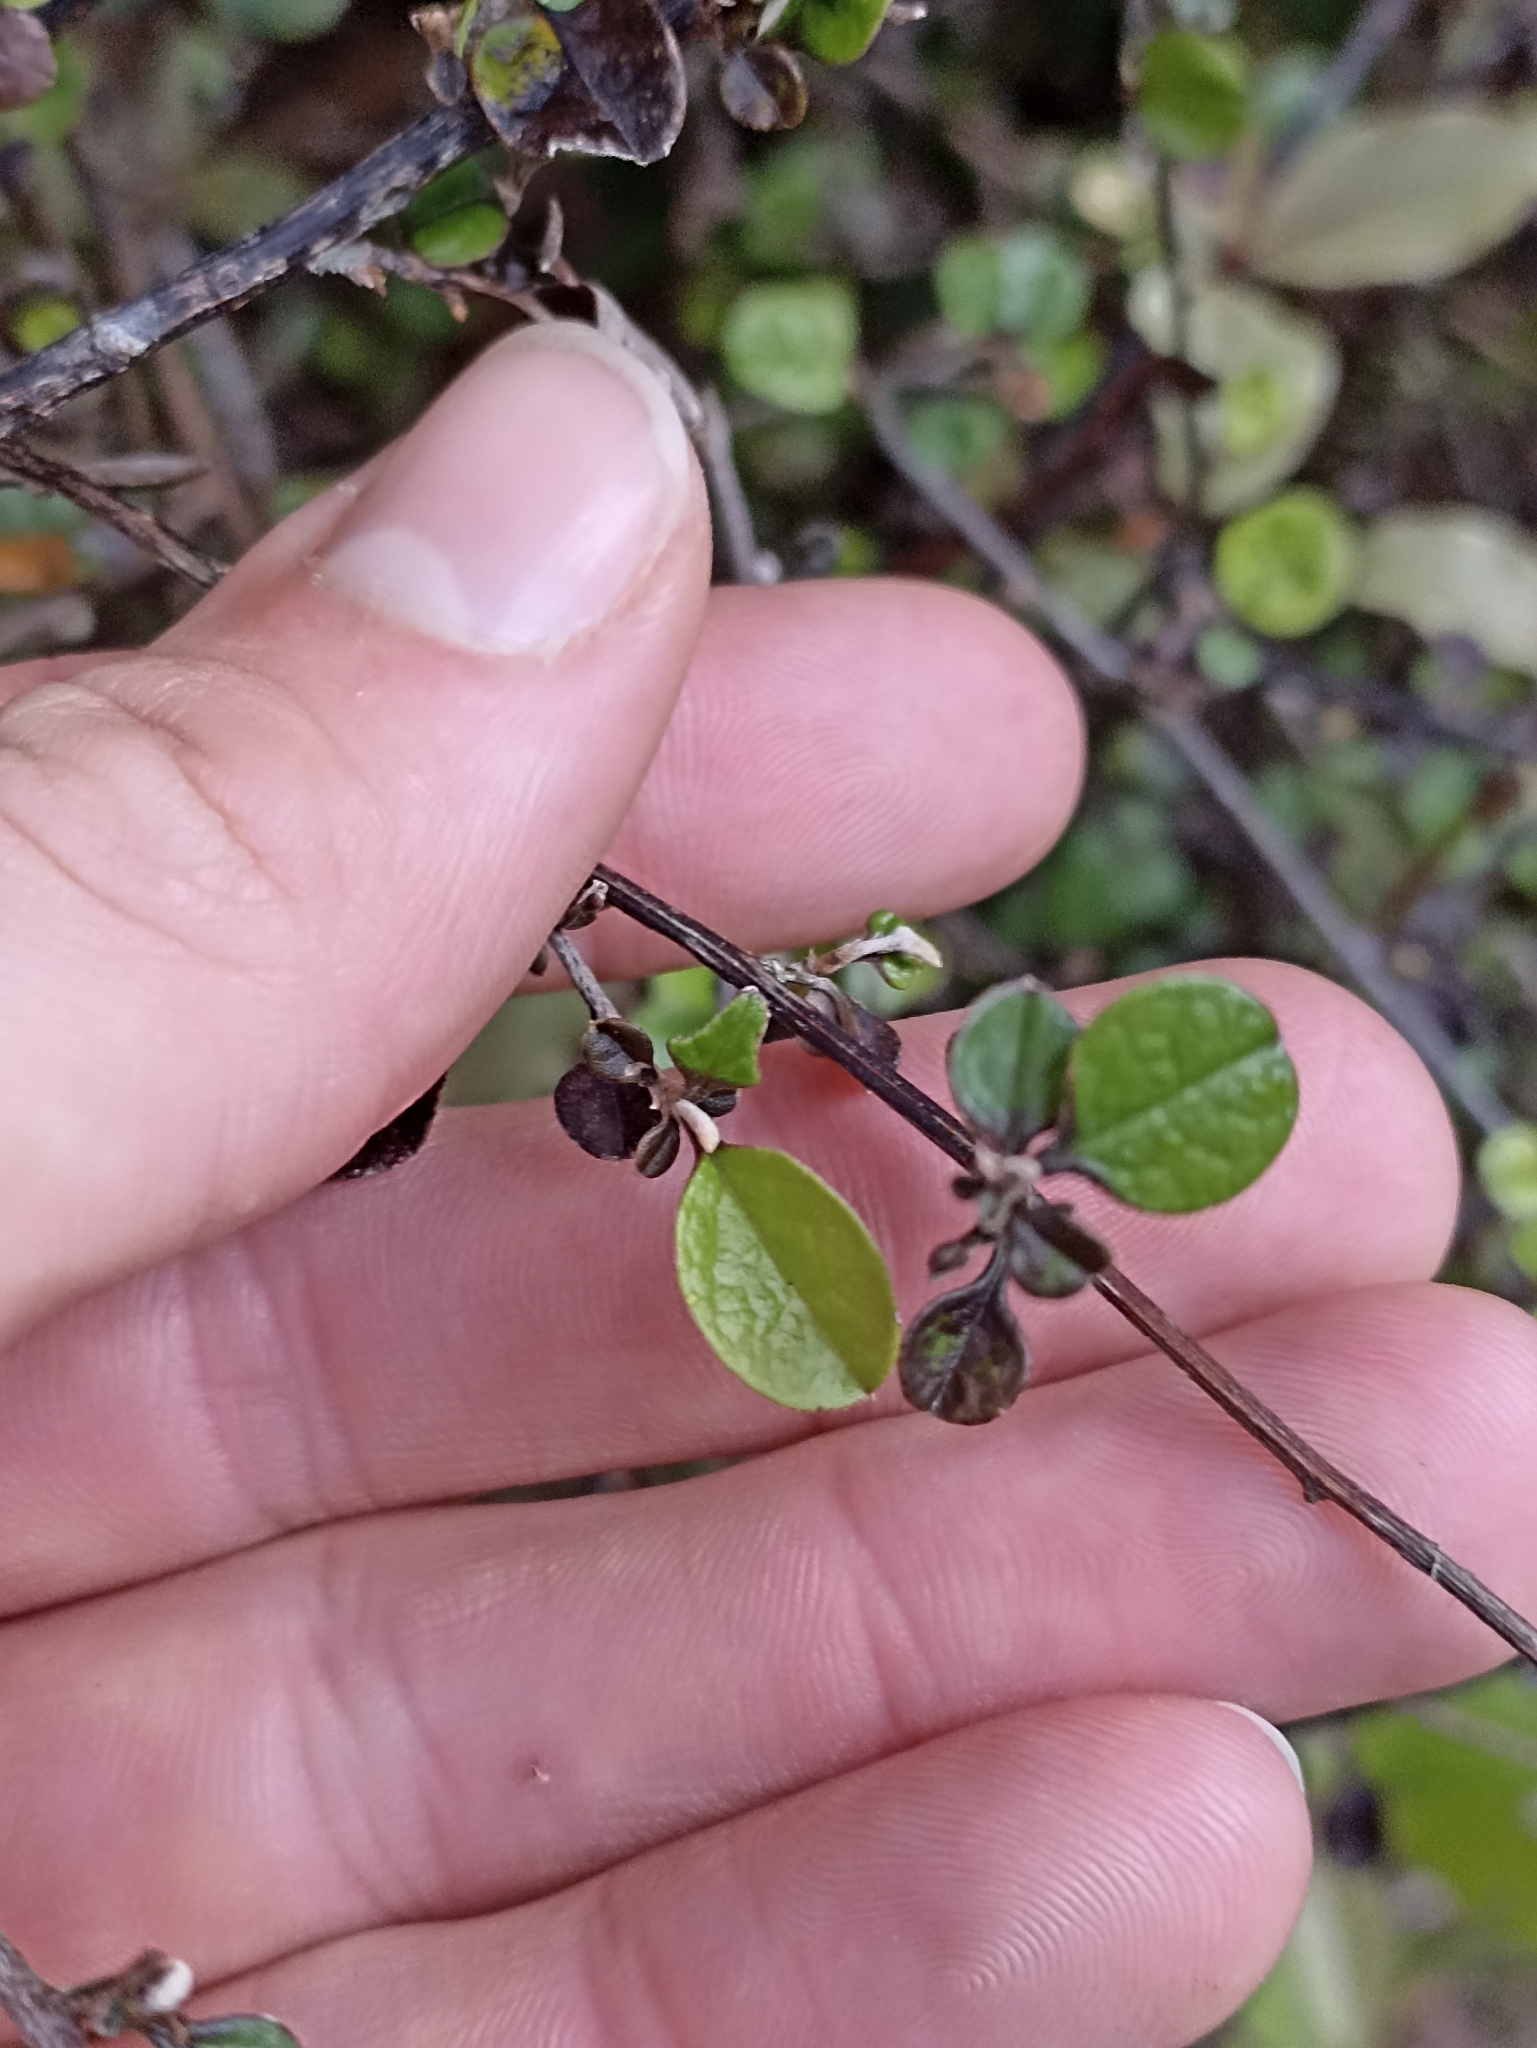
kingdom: Plantae
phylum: Tracheophyta
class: Magnoliopsida
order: Asterales
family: Asteraceae
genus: Ozothamnus
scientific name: Ozothamnus glomeratus
